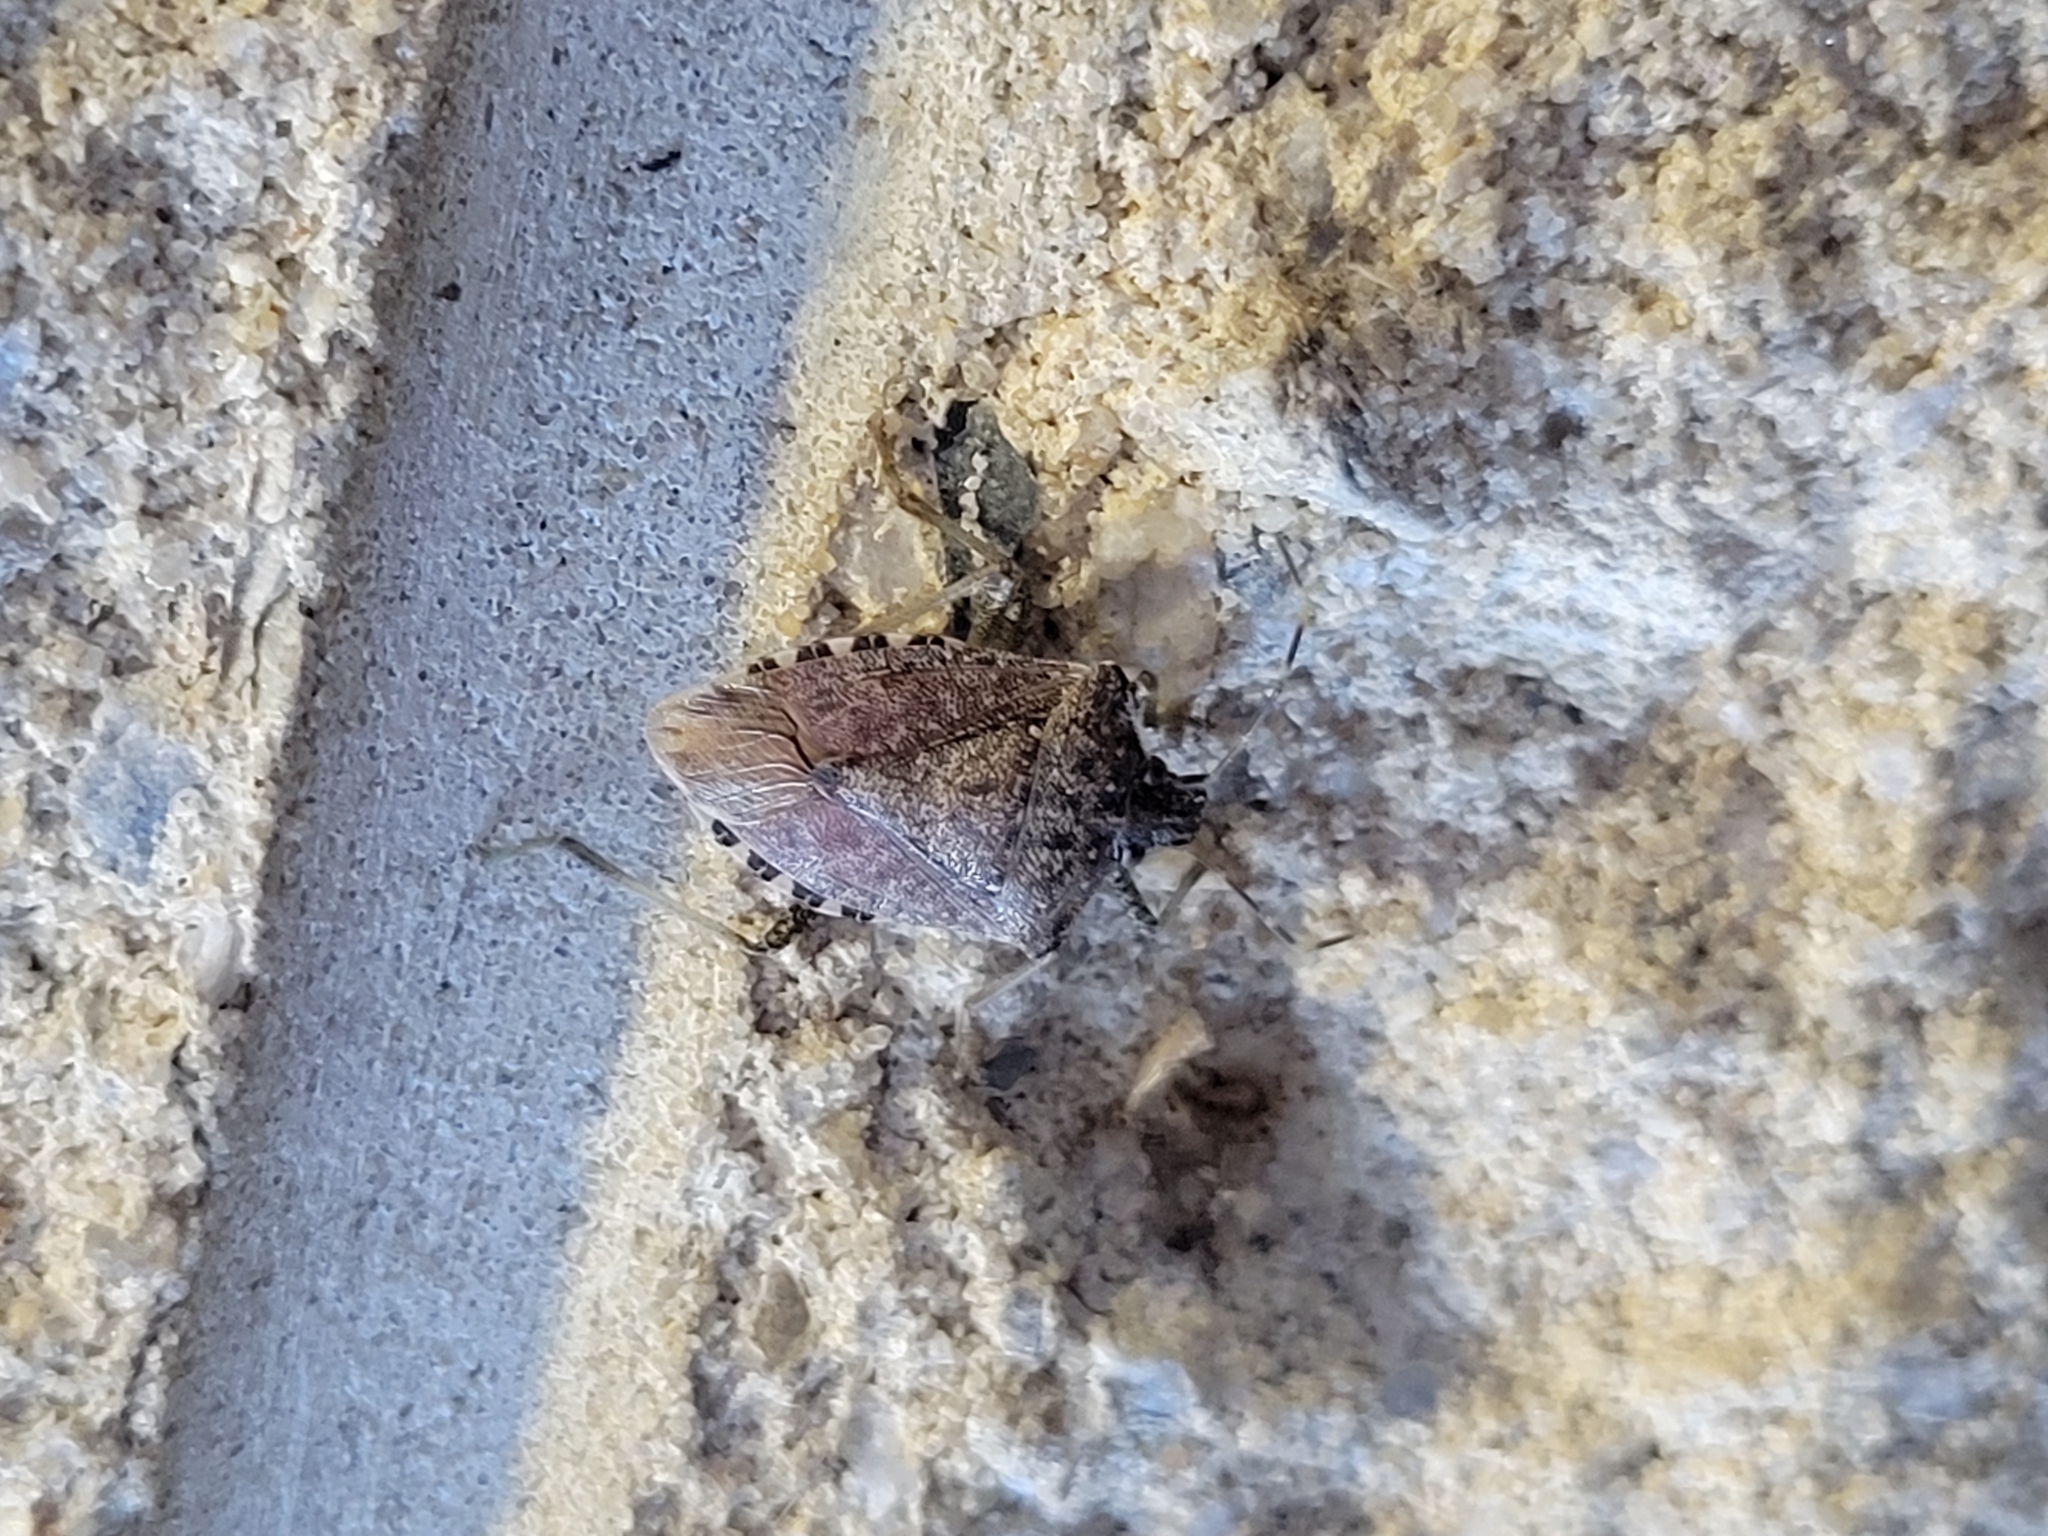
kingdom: Animalia
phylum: Arthropoda
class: Insecta
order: Hemiptera
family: Pentatomidae
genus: Halyomorpha
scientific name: Halyomorpha halys
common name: Brown marmorated stink bug
